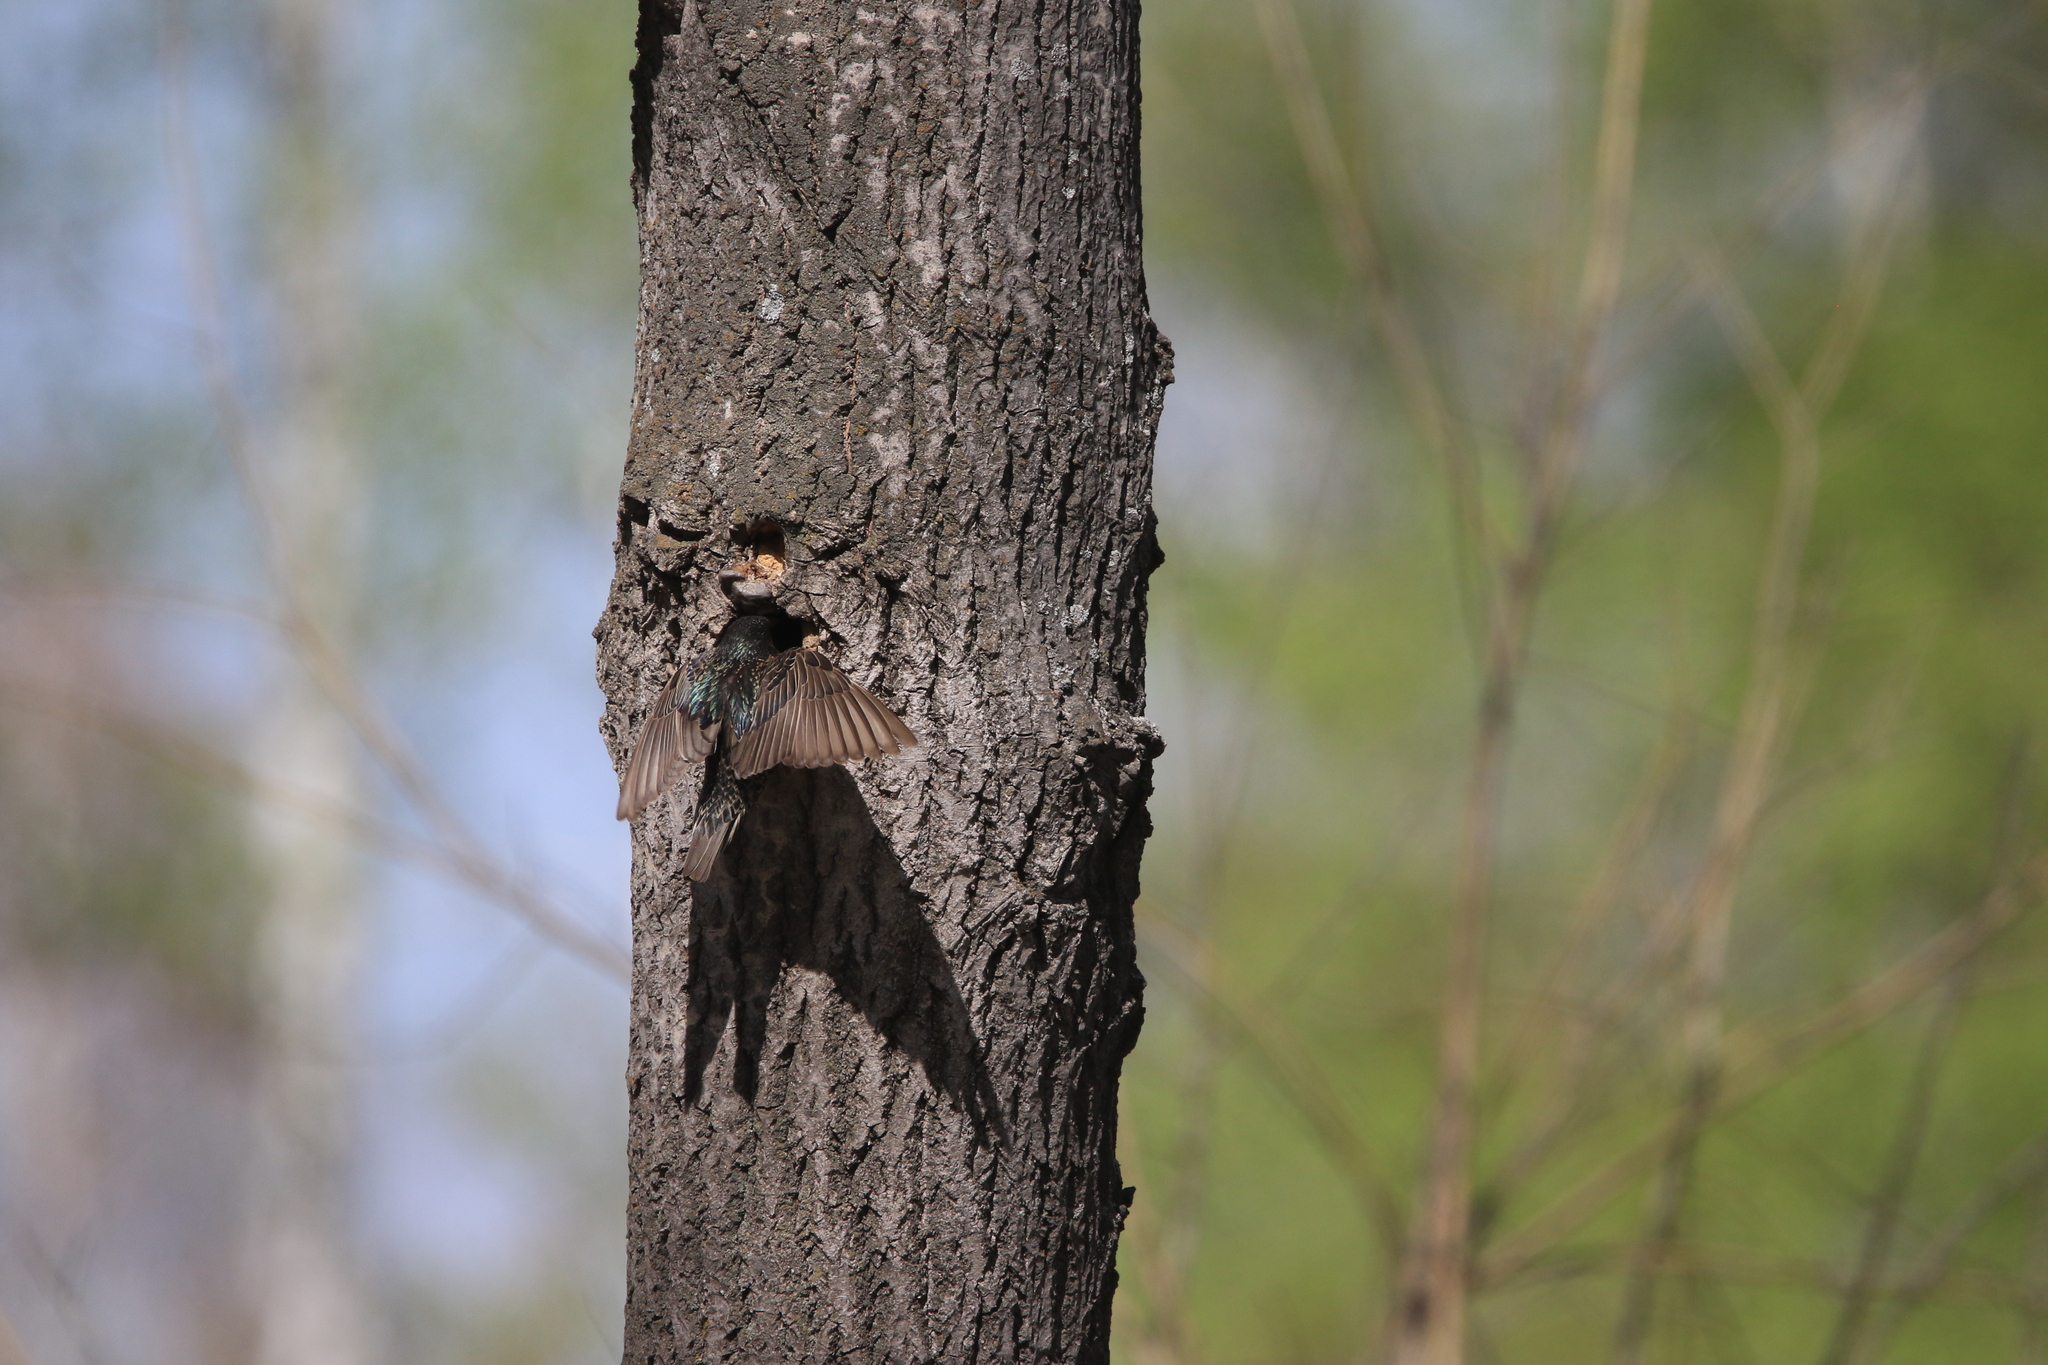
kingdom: Animalia
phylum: Chordata
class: Aves
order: Passeriformes
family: Sturnidae
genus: Sturnus
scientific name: Sturnus vulgaris
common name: Common starling
